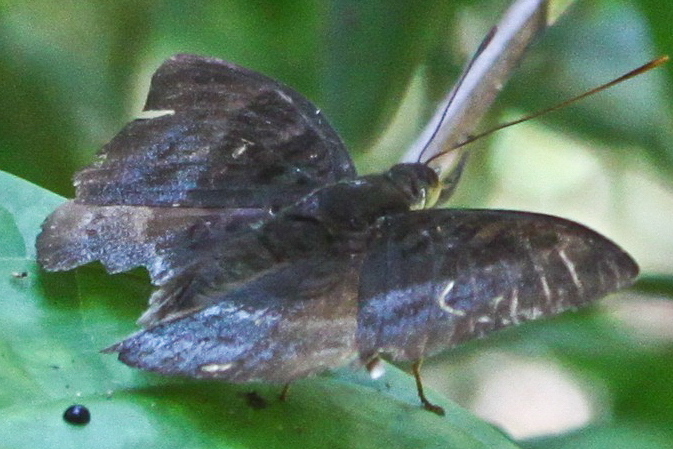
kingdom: Animalia
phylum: Arthropoda
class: Insecta
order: Lepidoptera
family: Nymphalidae
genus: Euthalia
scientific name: Euthalia monina
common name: Powdered baron
